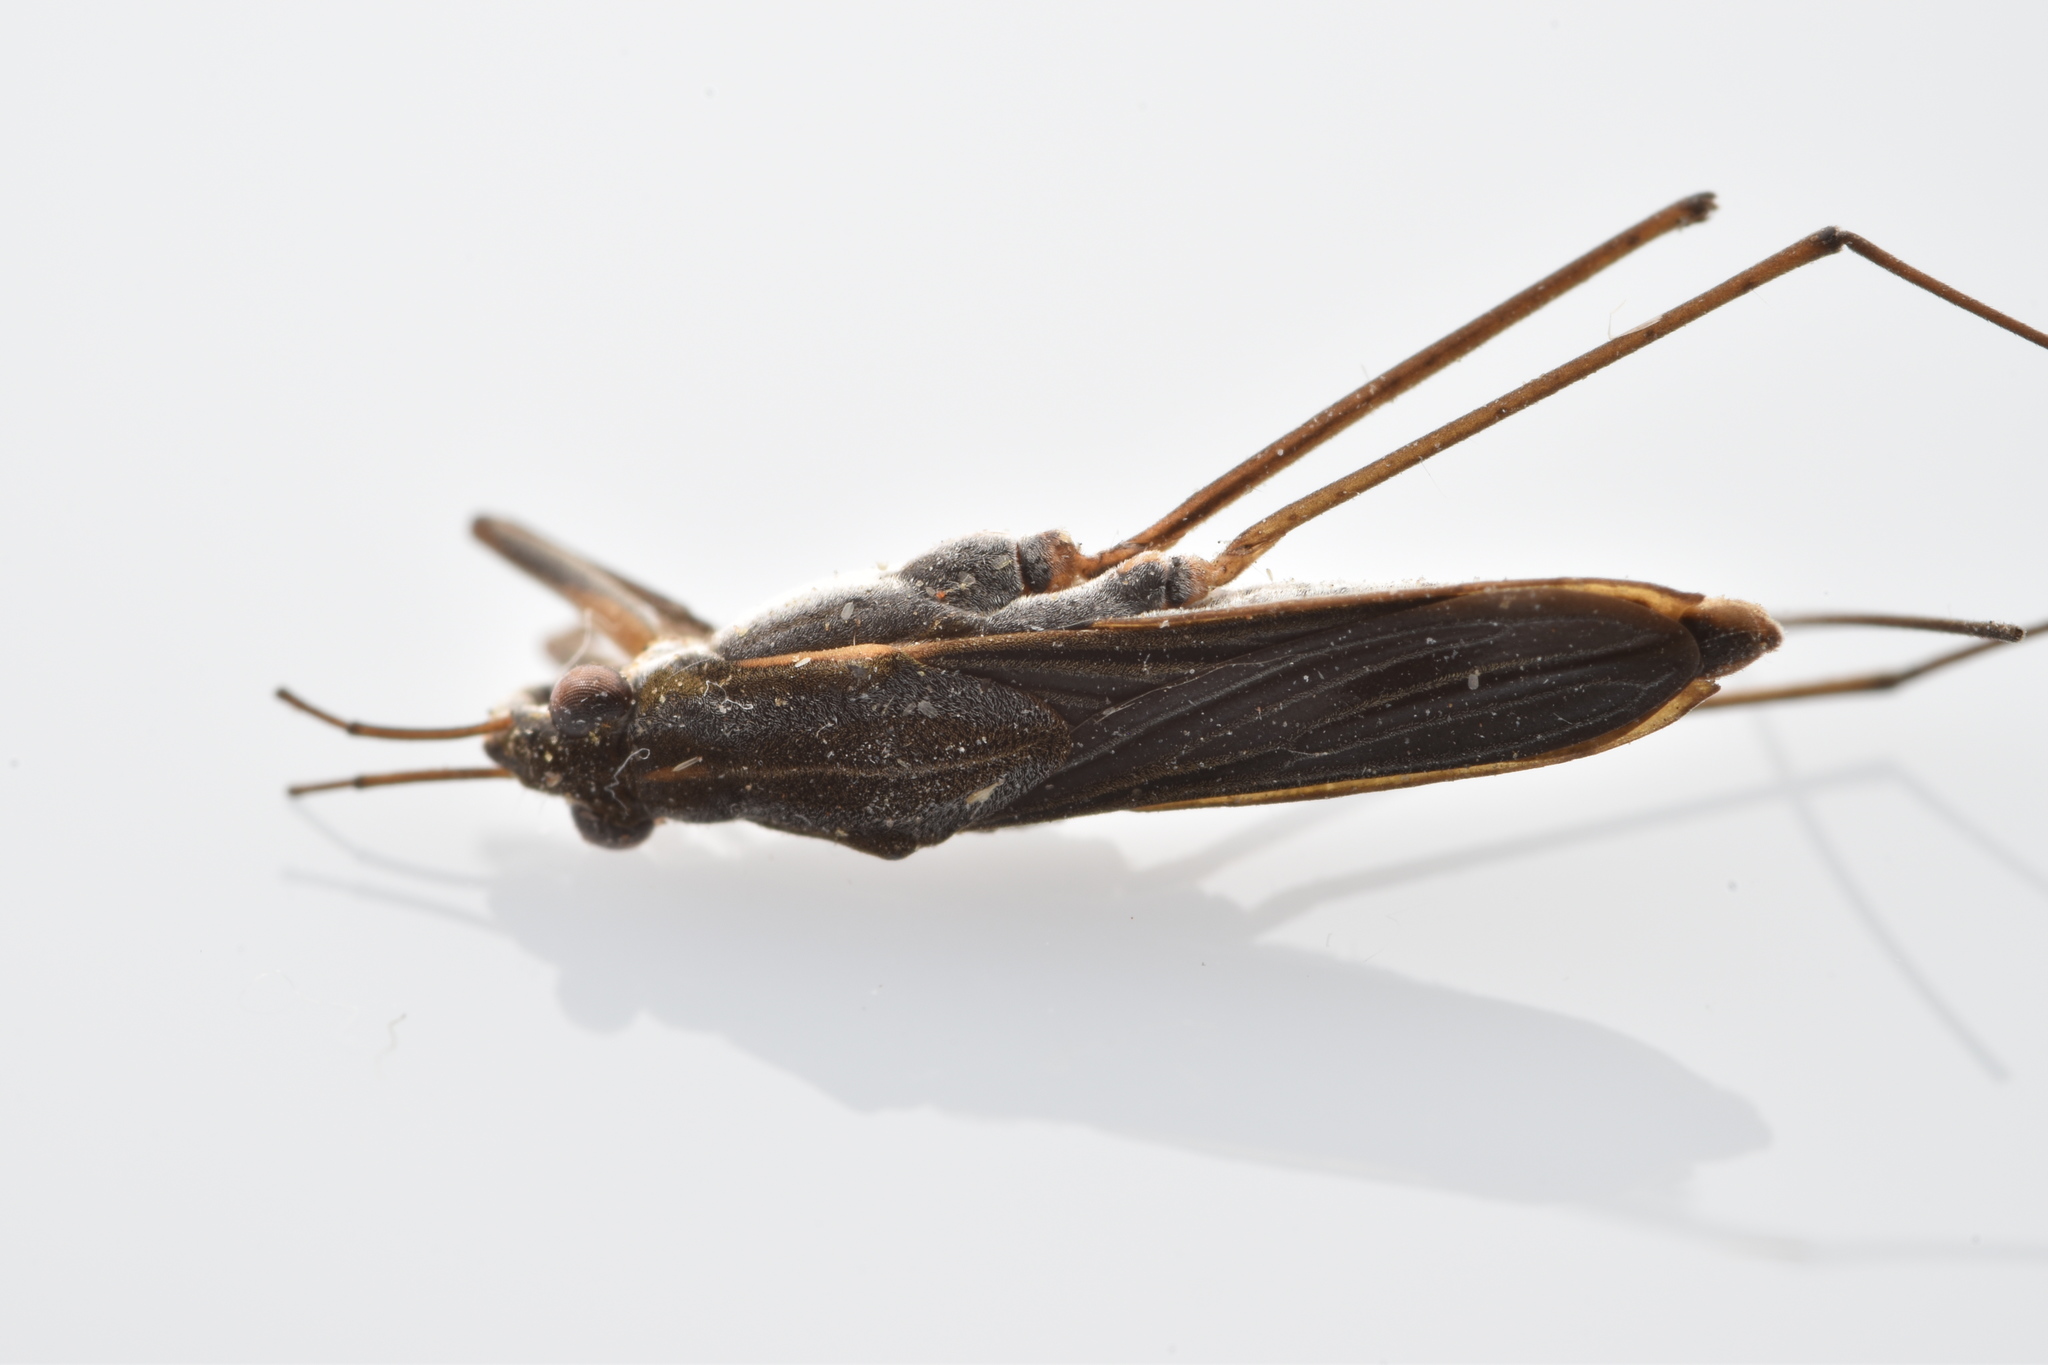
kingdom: Animalia
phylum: Arthropoda
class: Insecta
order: Hemiptera
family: Gerridae
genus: Gerris
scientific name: Gerris marginatus
